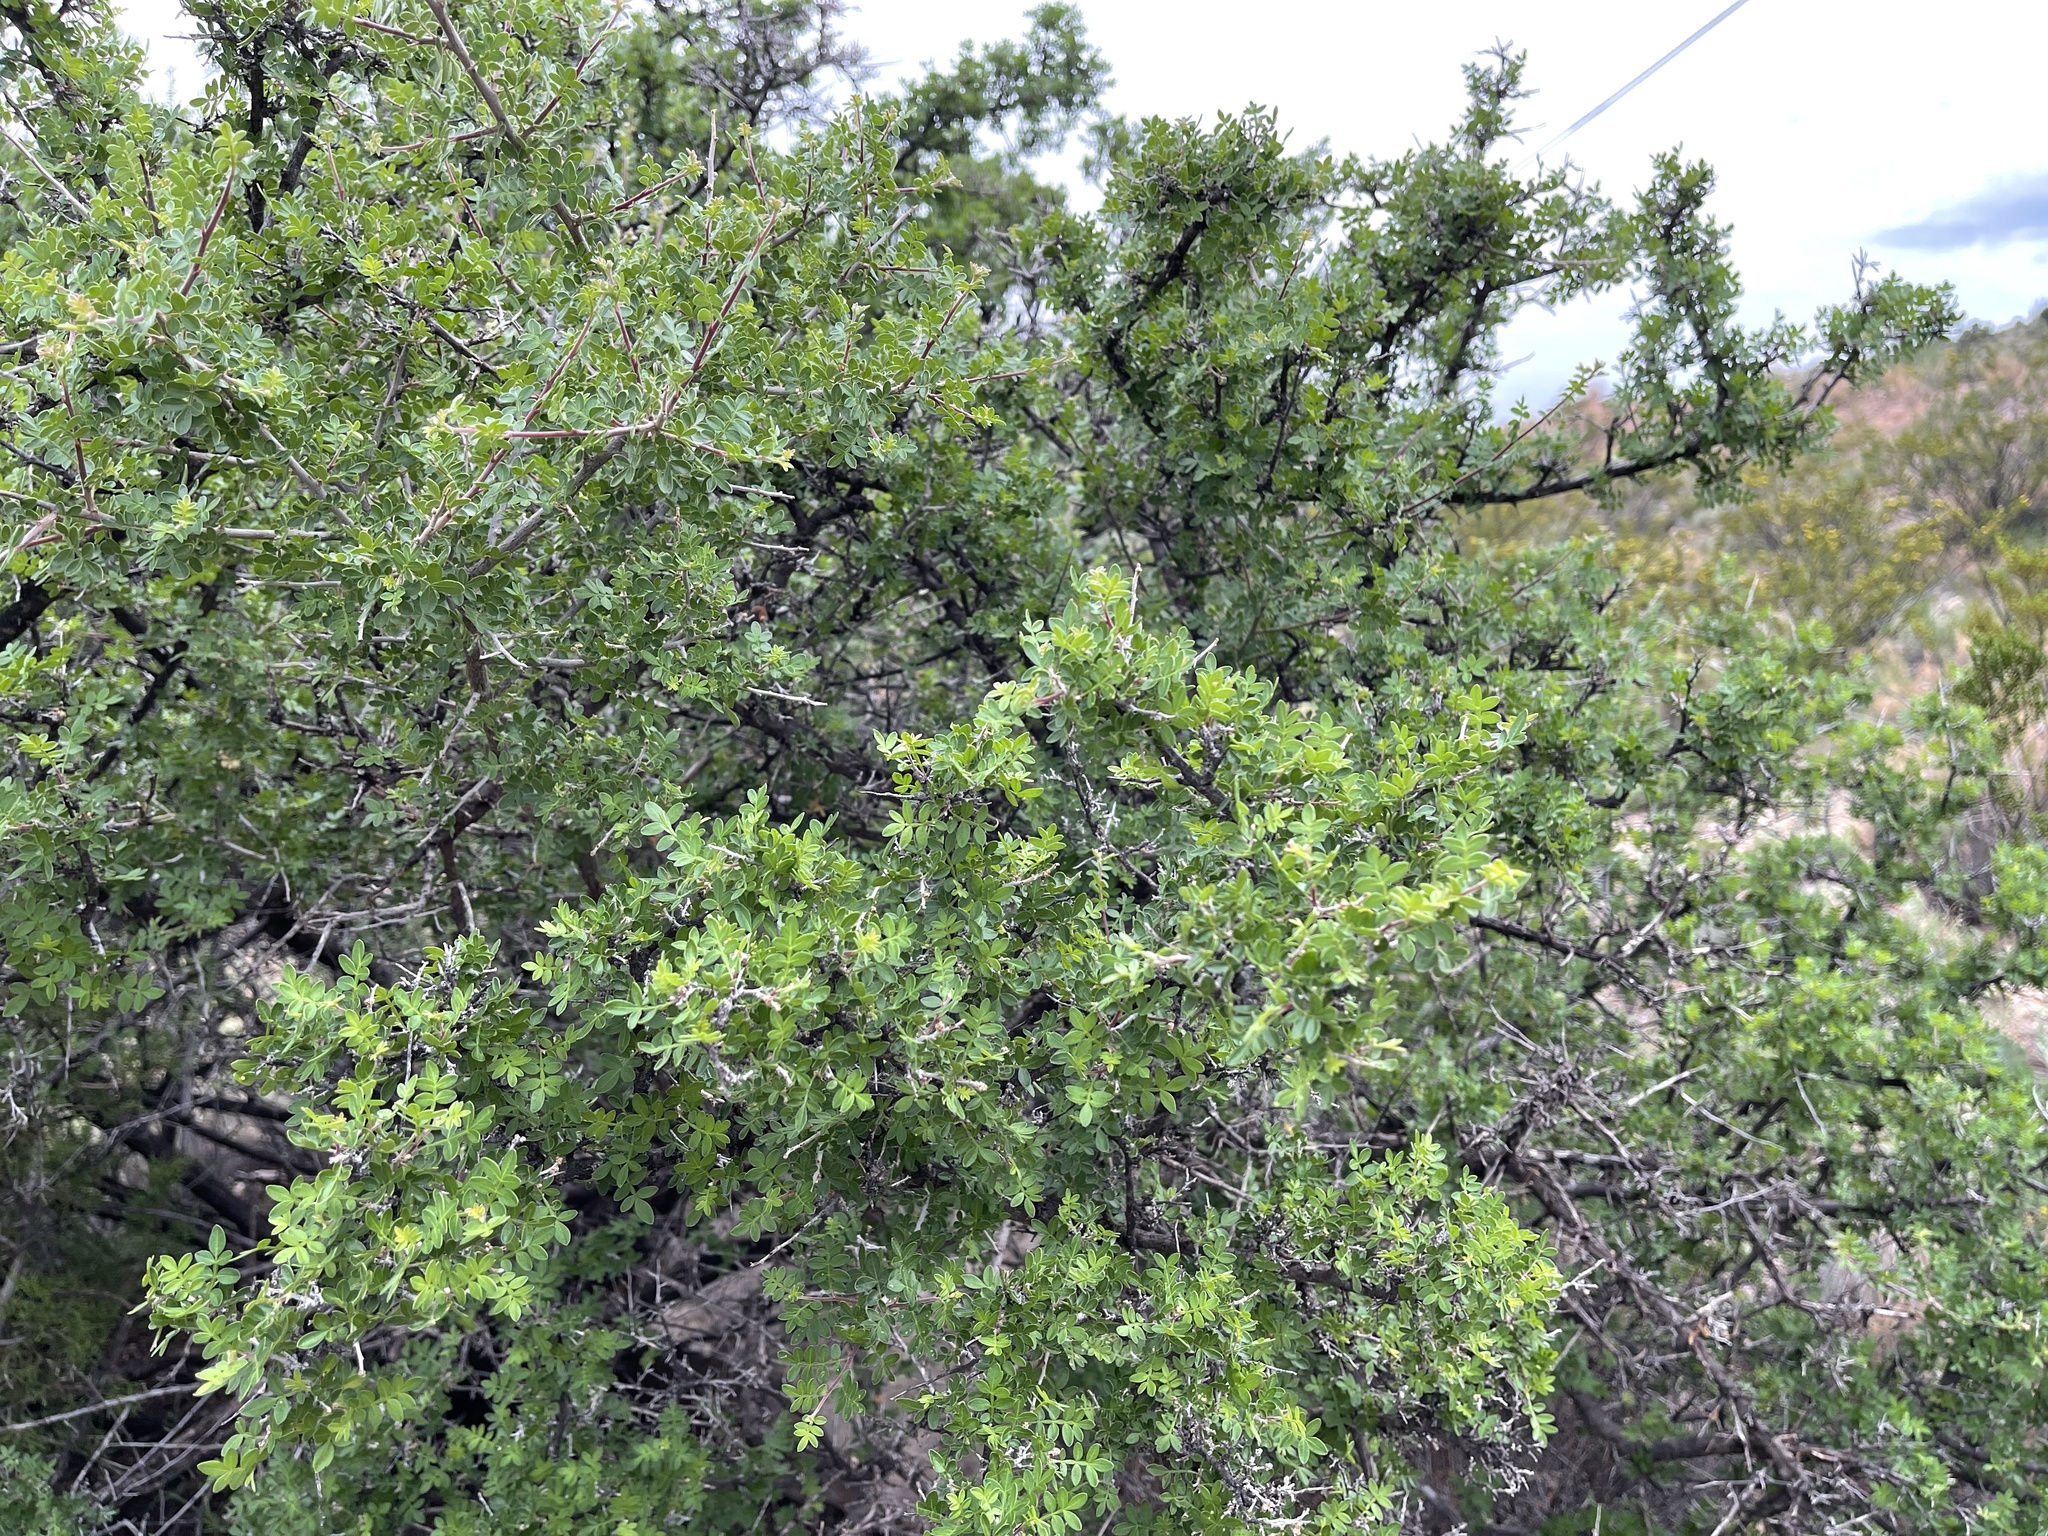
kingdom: Plantae
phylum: Tracheophyta
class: Magnoliopsida
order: Sapindales
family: Anacardiaceae
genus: Rhus
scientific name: Rhus microphylla
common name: Desert sumac
